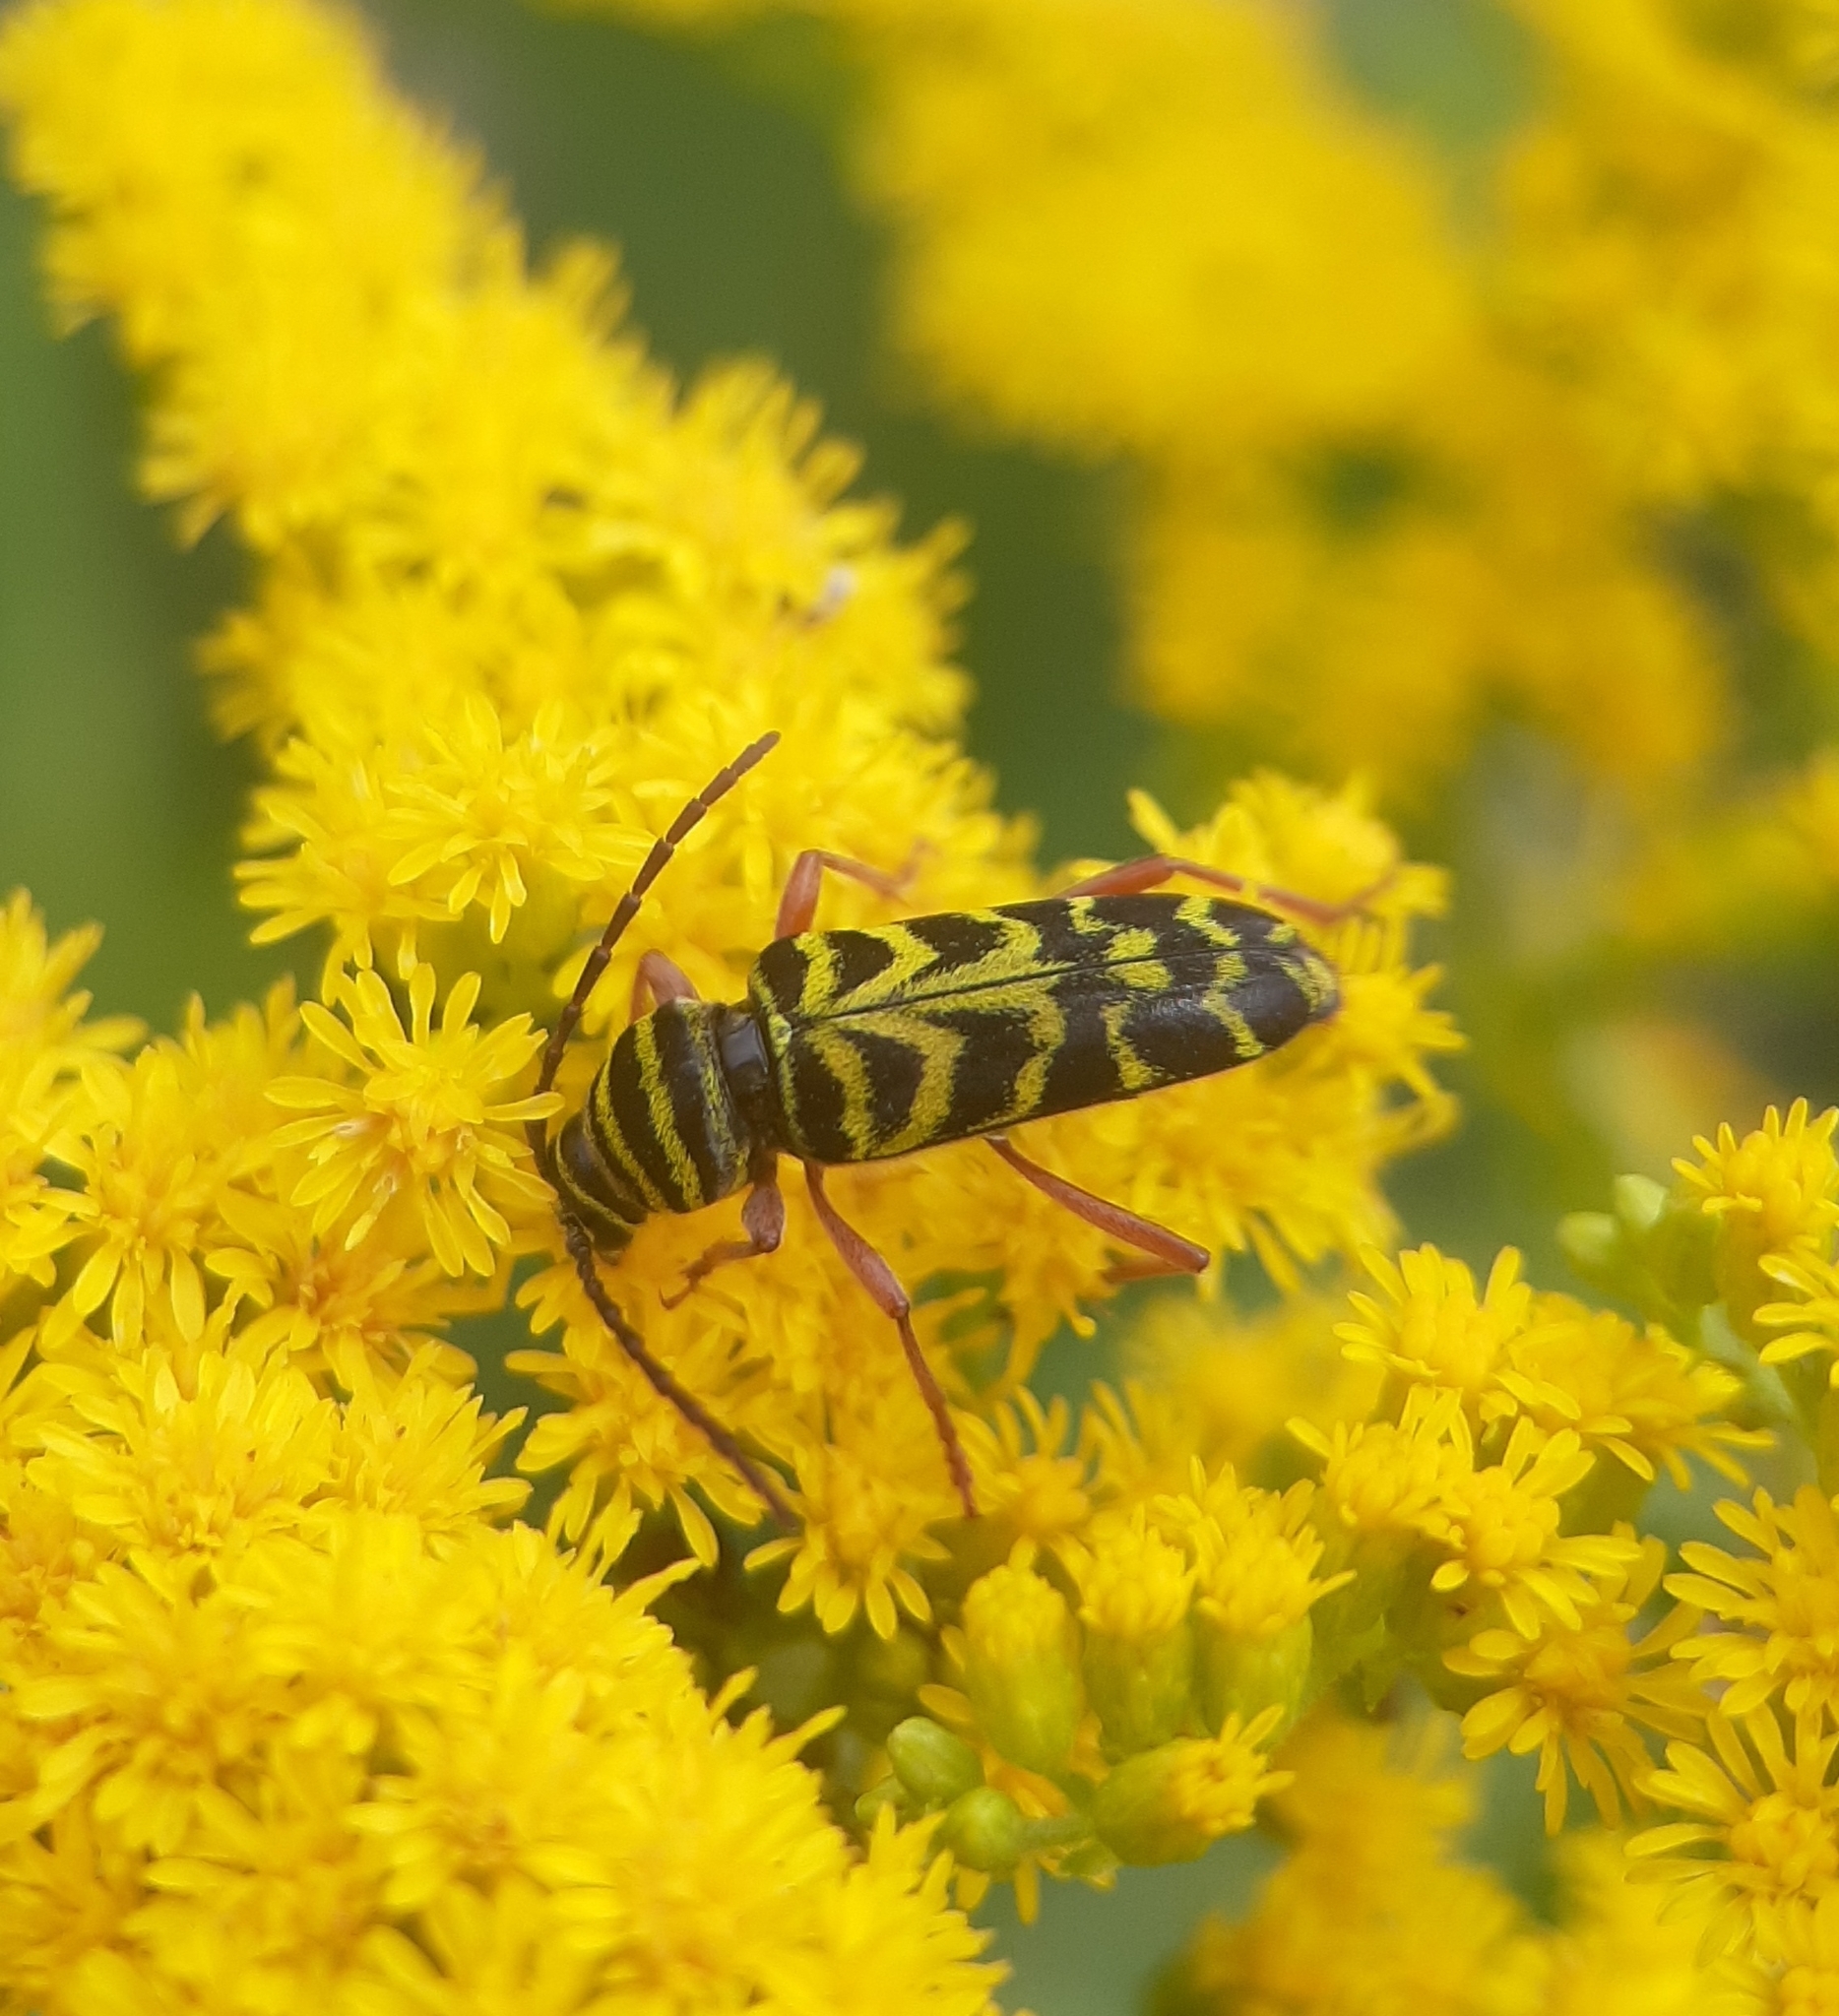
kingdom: Animalia
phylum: Arthropoda
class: Insecta
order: Coleoptera
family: Cerambycidae
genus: Megacyllene
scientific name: Megacyllene robiniae
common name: Locust borer
